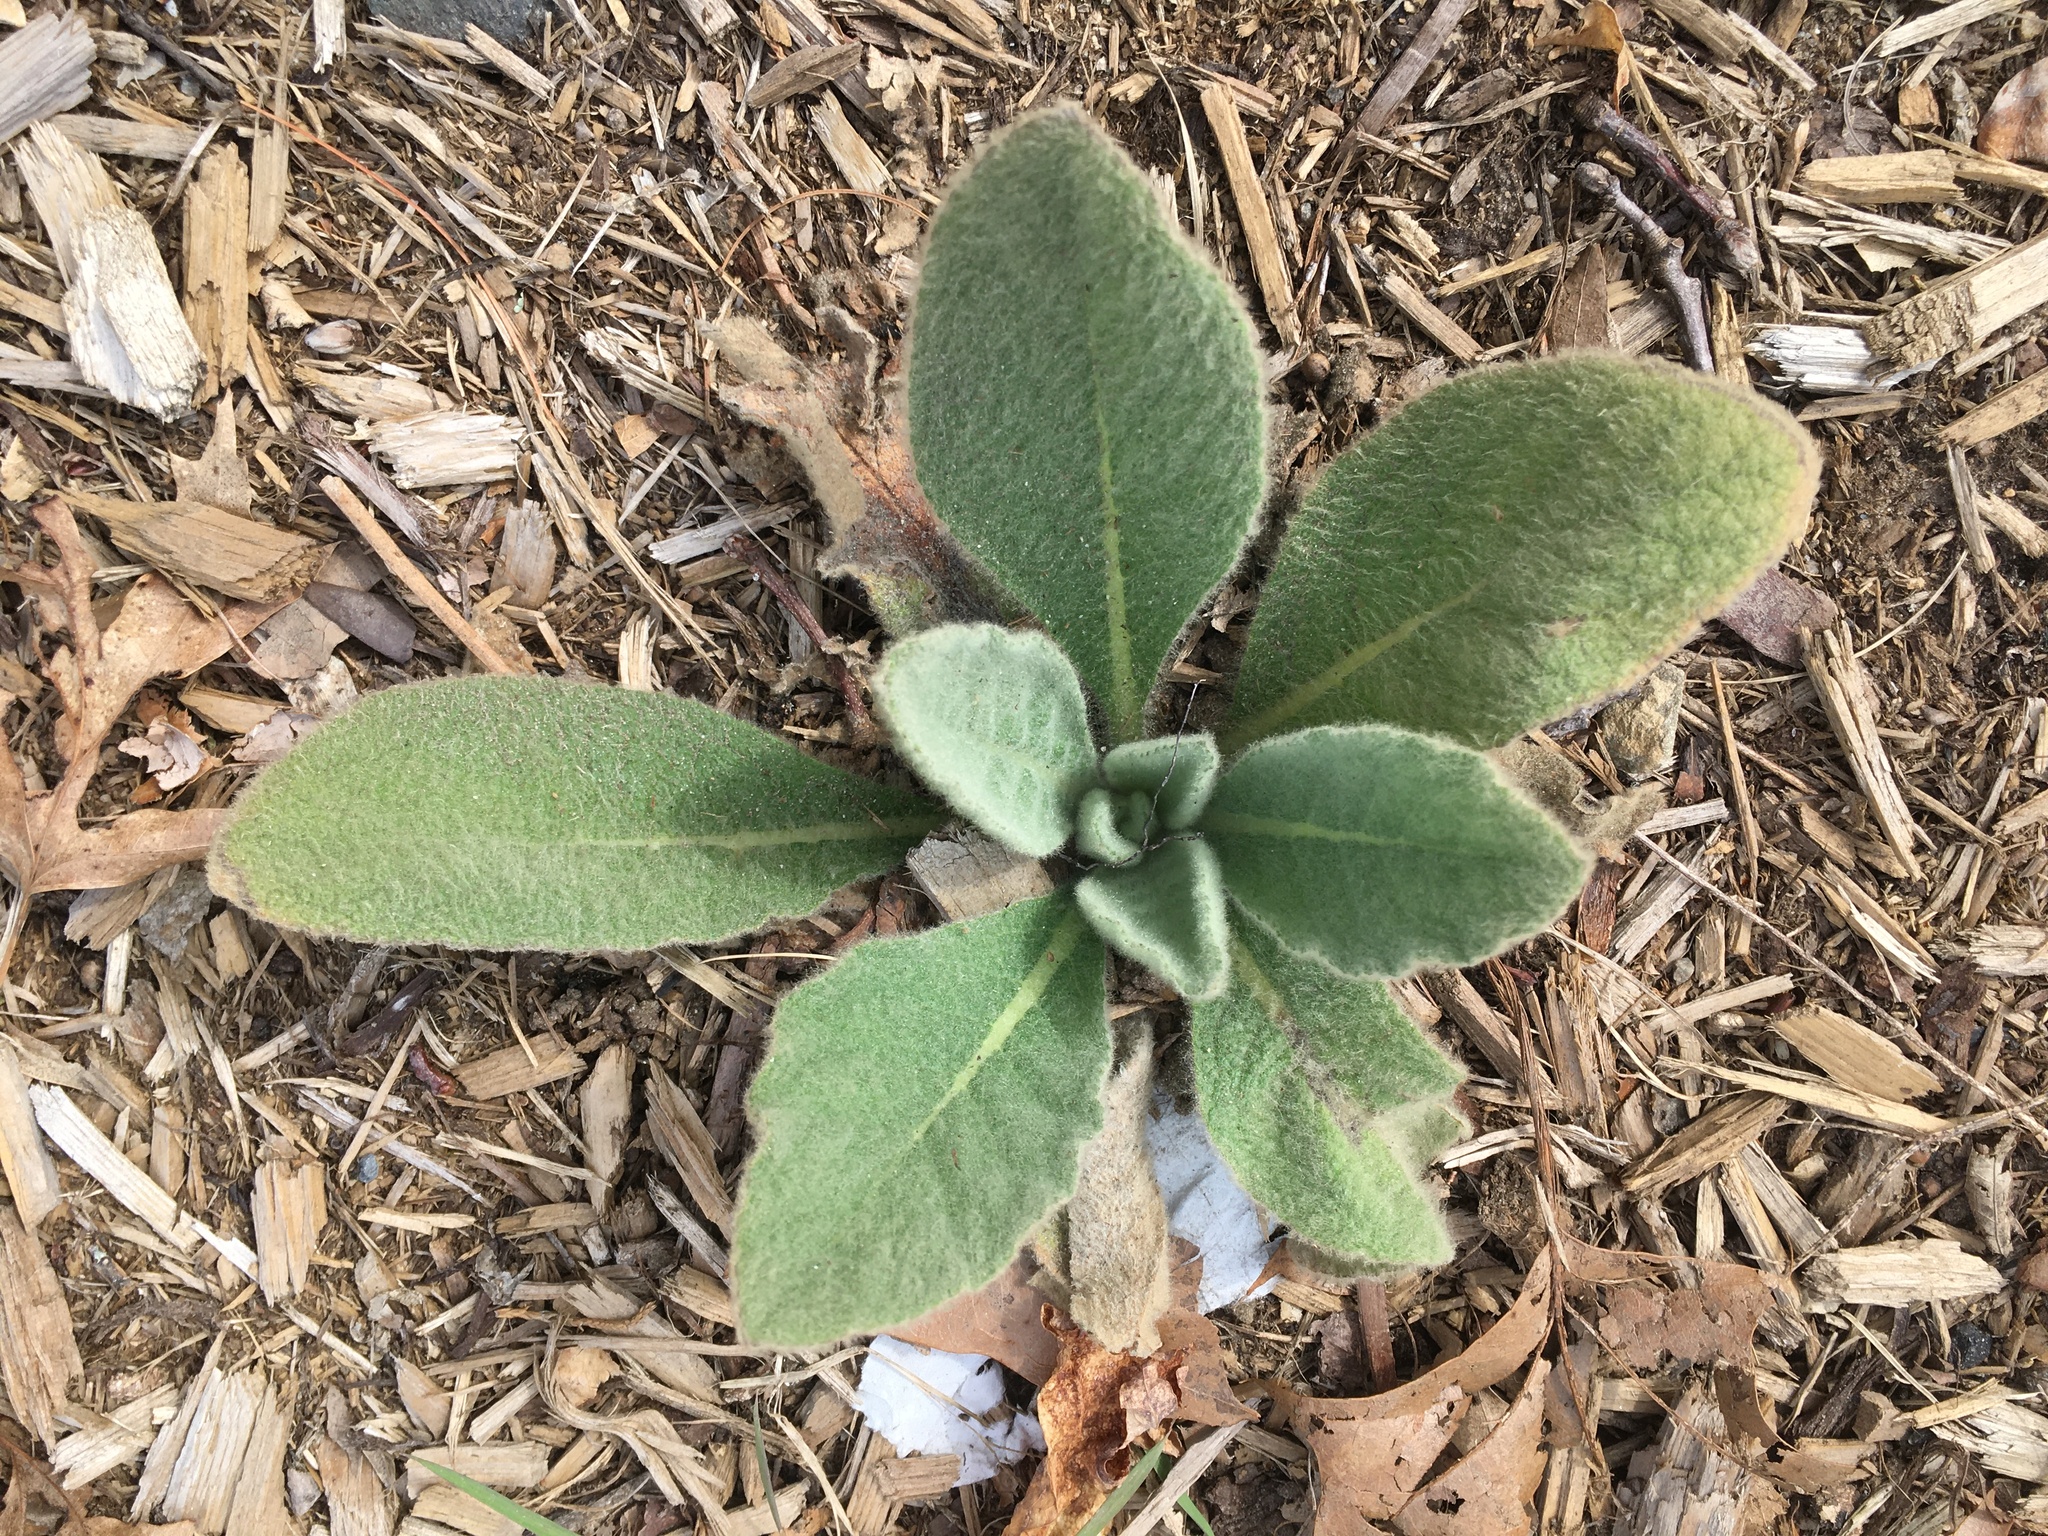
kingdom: Plantae
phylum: Tracheophyta
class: Magnoliopsida
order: Lamiales
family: Scrophulariaceae
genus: Verbascum
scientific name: Verbascum thapsus
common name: Common mullein
